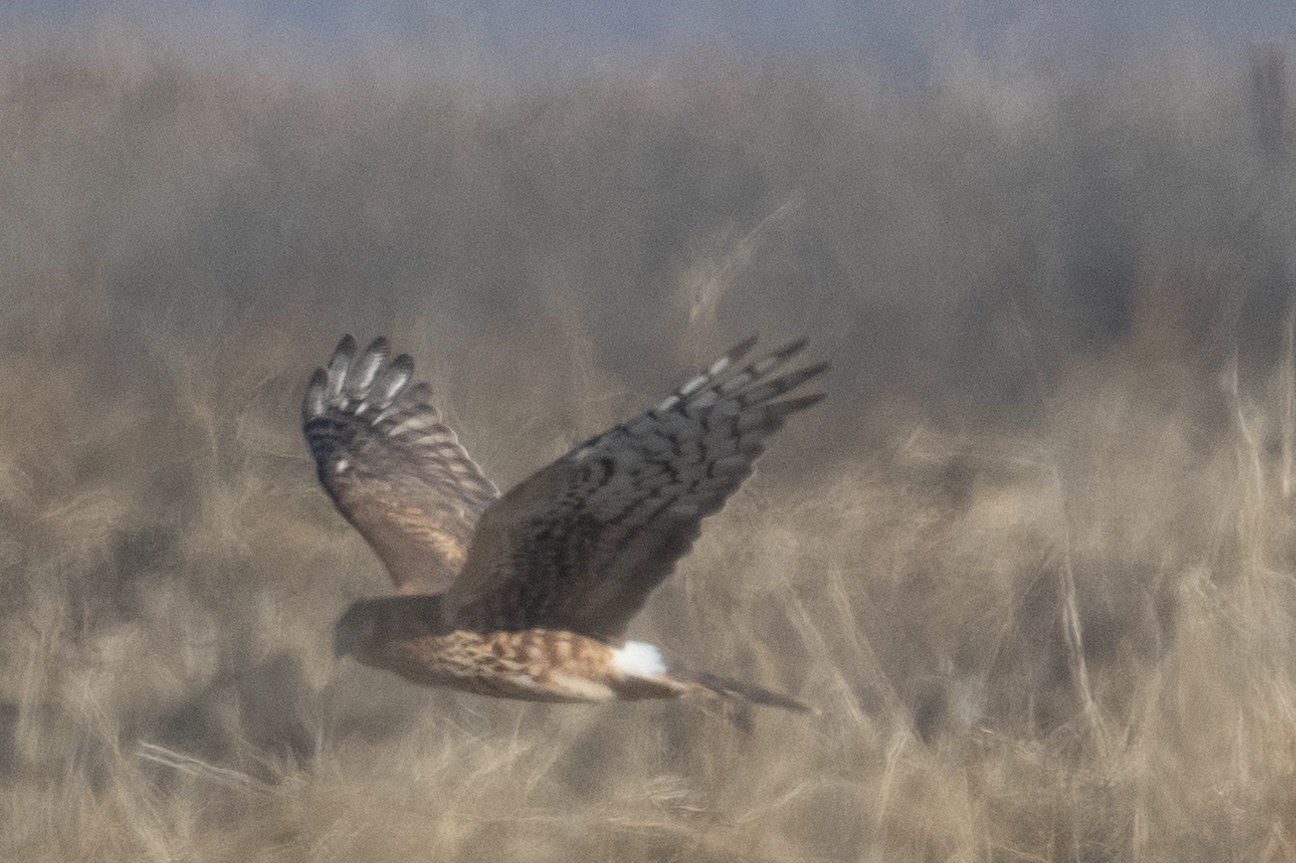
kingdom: Animalia
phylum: Chordata
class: Aves
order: Accipitriformes
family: Accipitridae
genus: Circus
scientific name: Circus cyaneus
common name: Hen harrier
